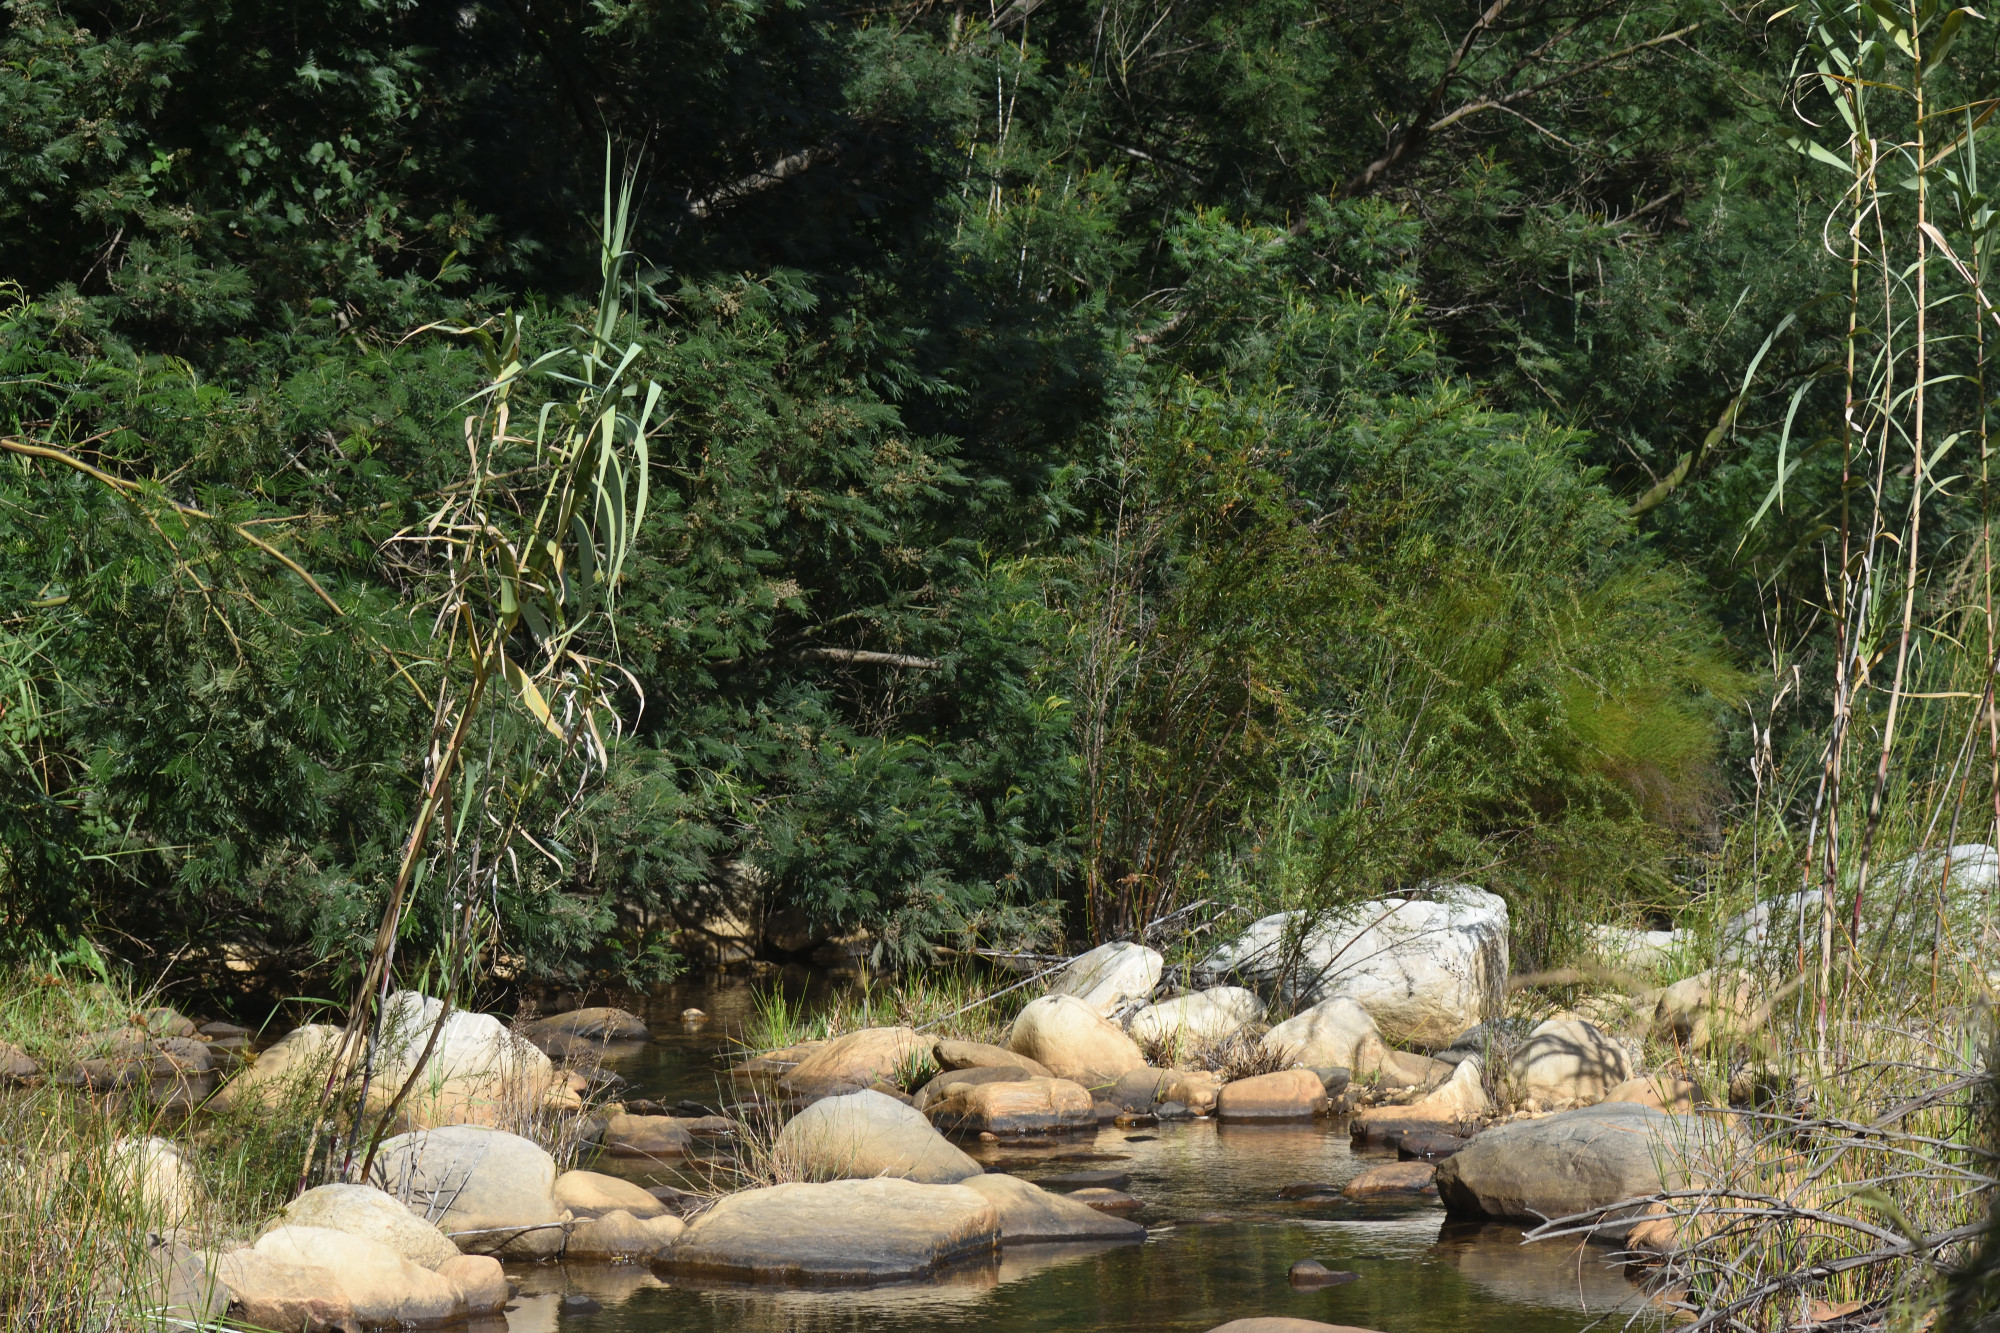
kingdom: Plantae
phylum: Tracheophyta
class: Liliopsida
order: Poales
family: Poaceae
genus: Arundo
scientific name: Arundo donax
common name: Giant reed
